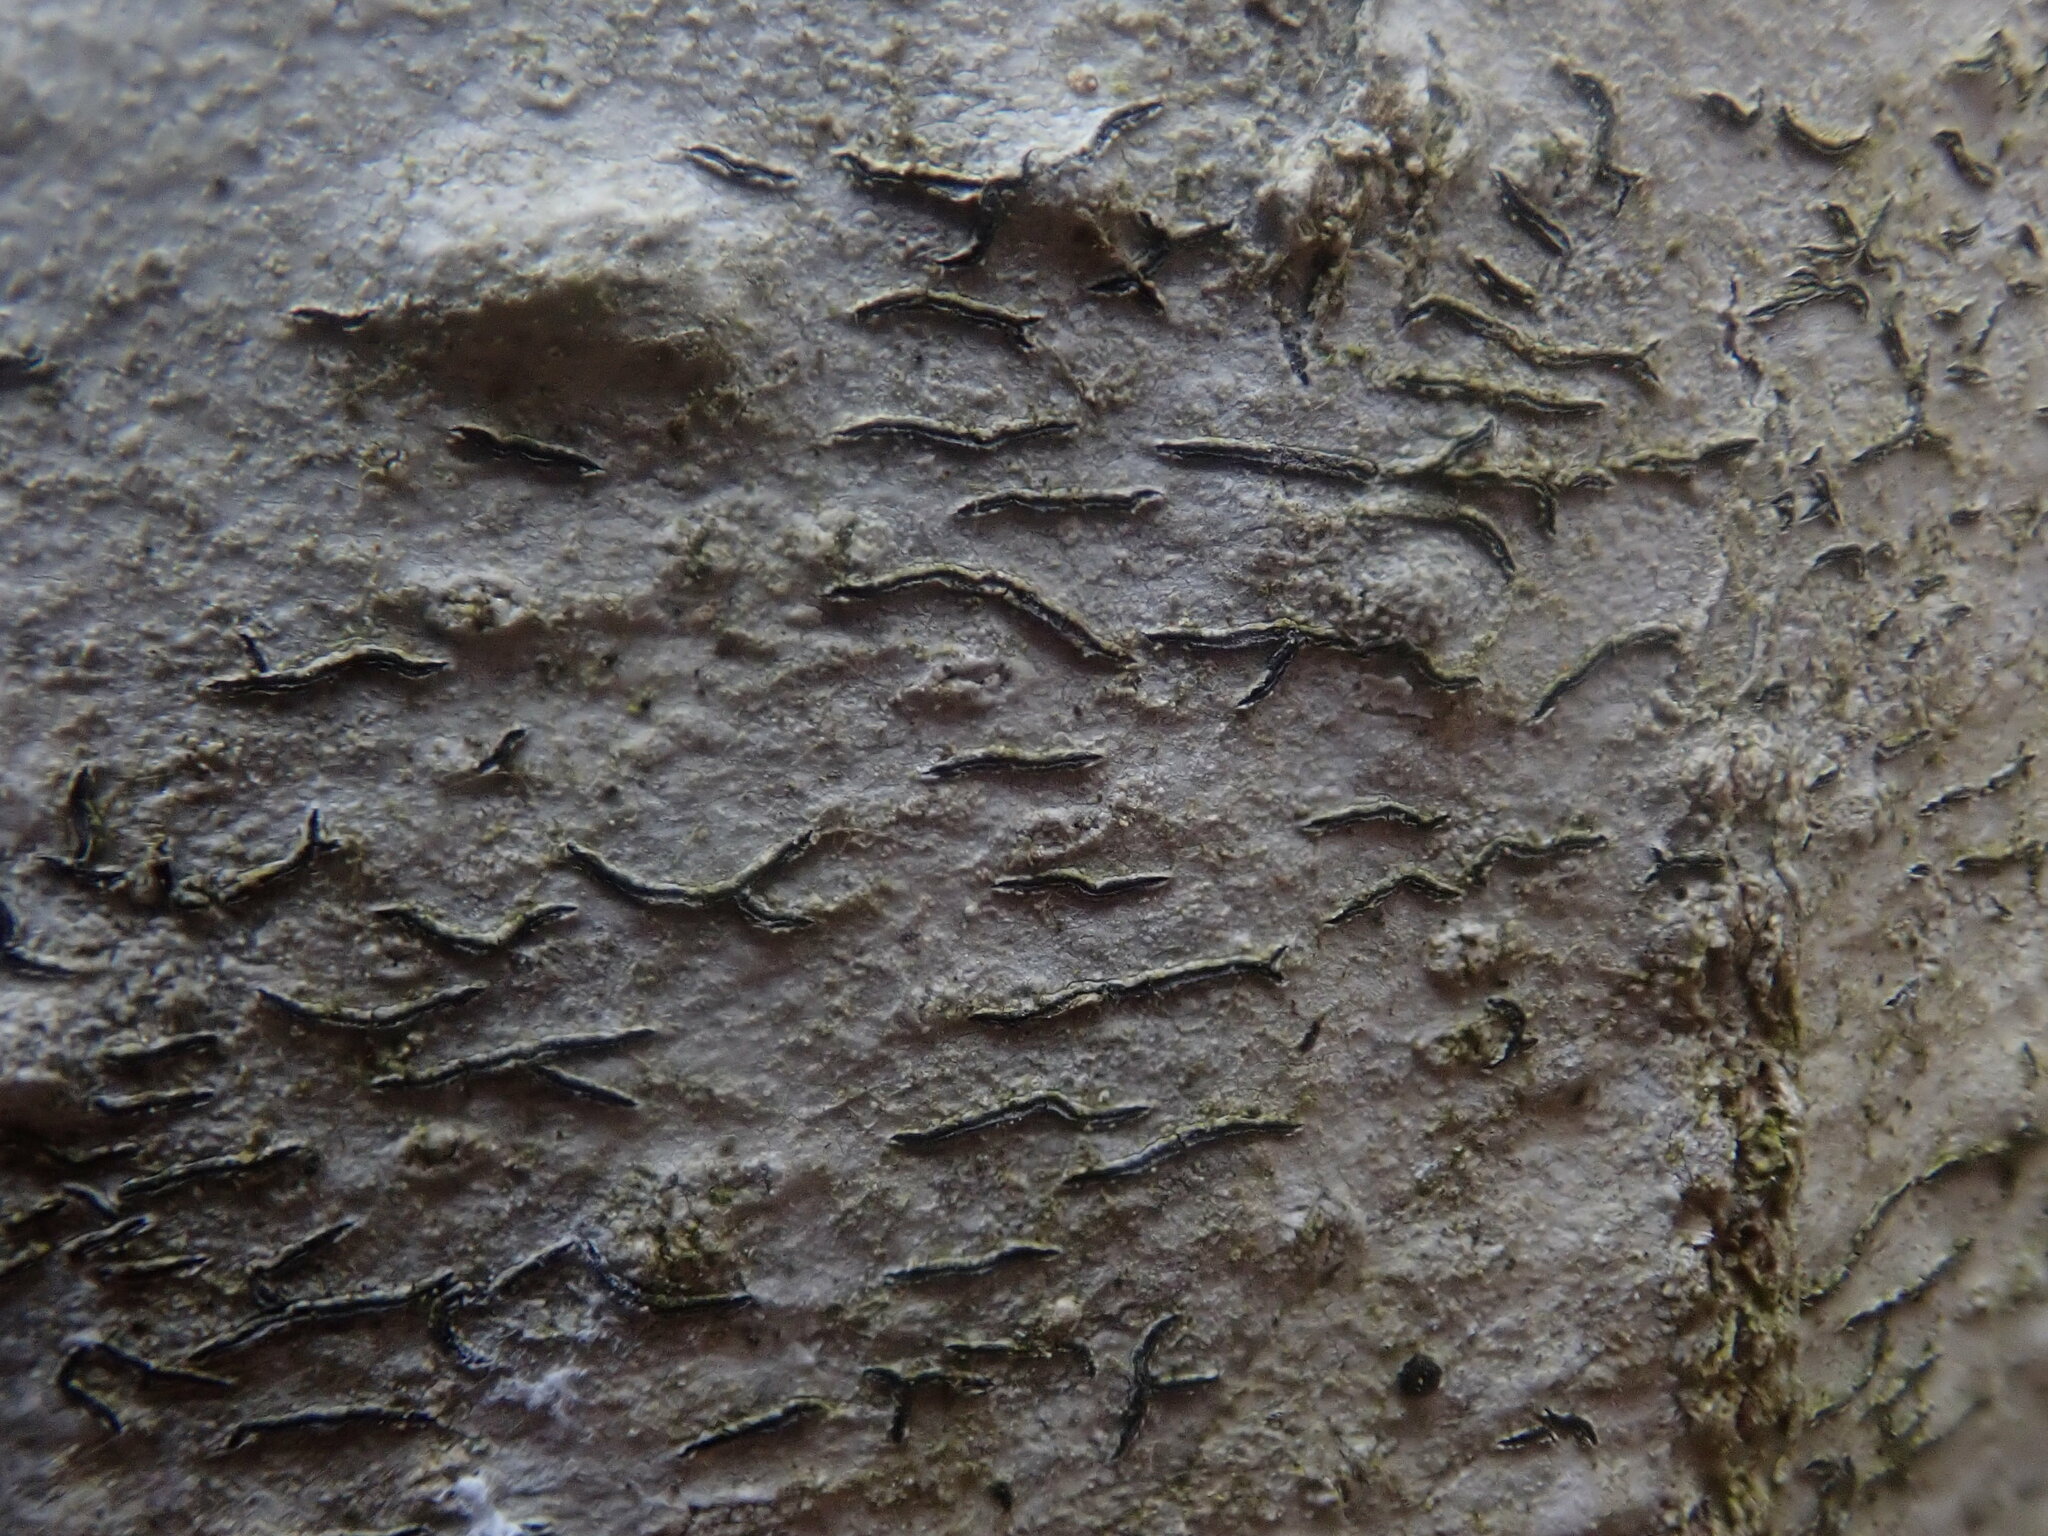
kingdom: Fungi
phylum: Ascomycota
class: Lecanoromycetes
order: Ostropales
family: Graphidaceae
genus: Graphis
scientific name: Graphis scripta
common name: Script lichen
